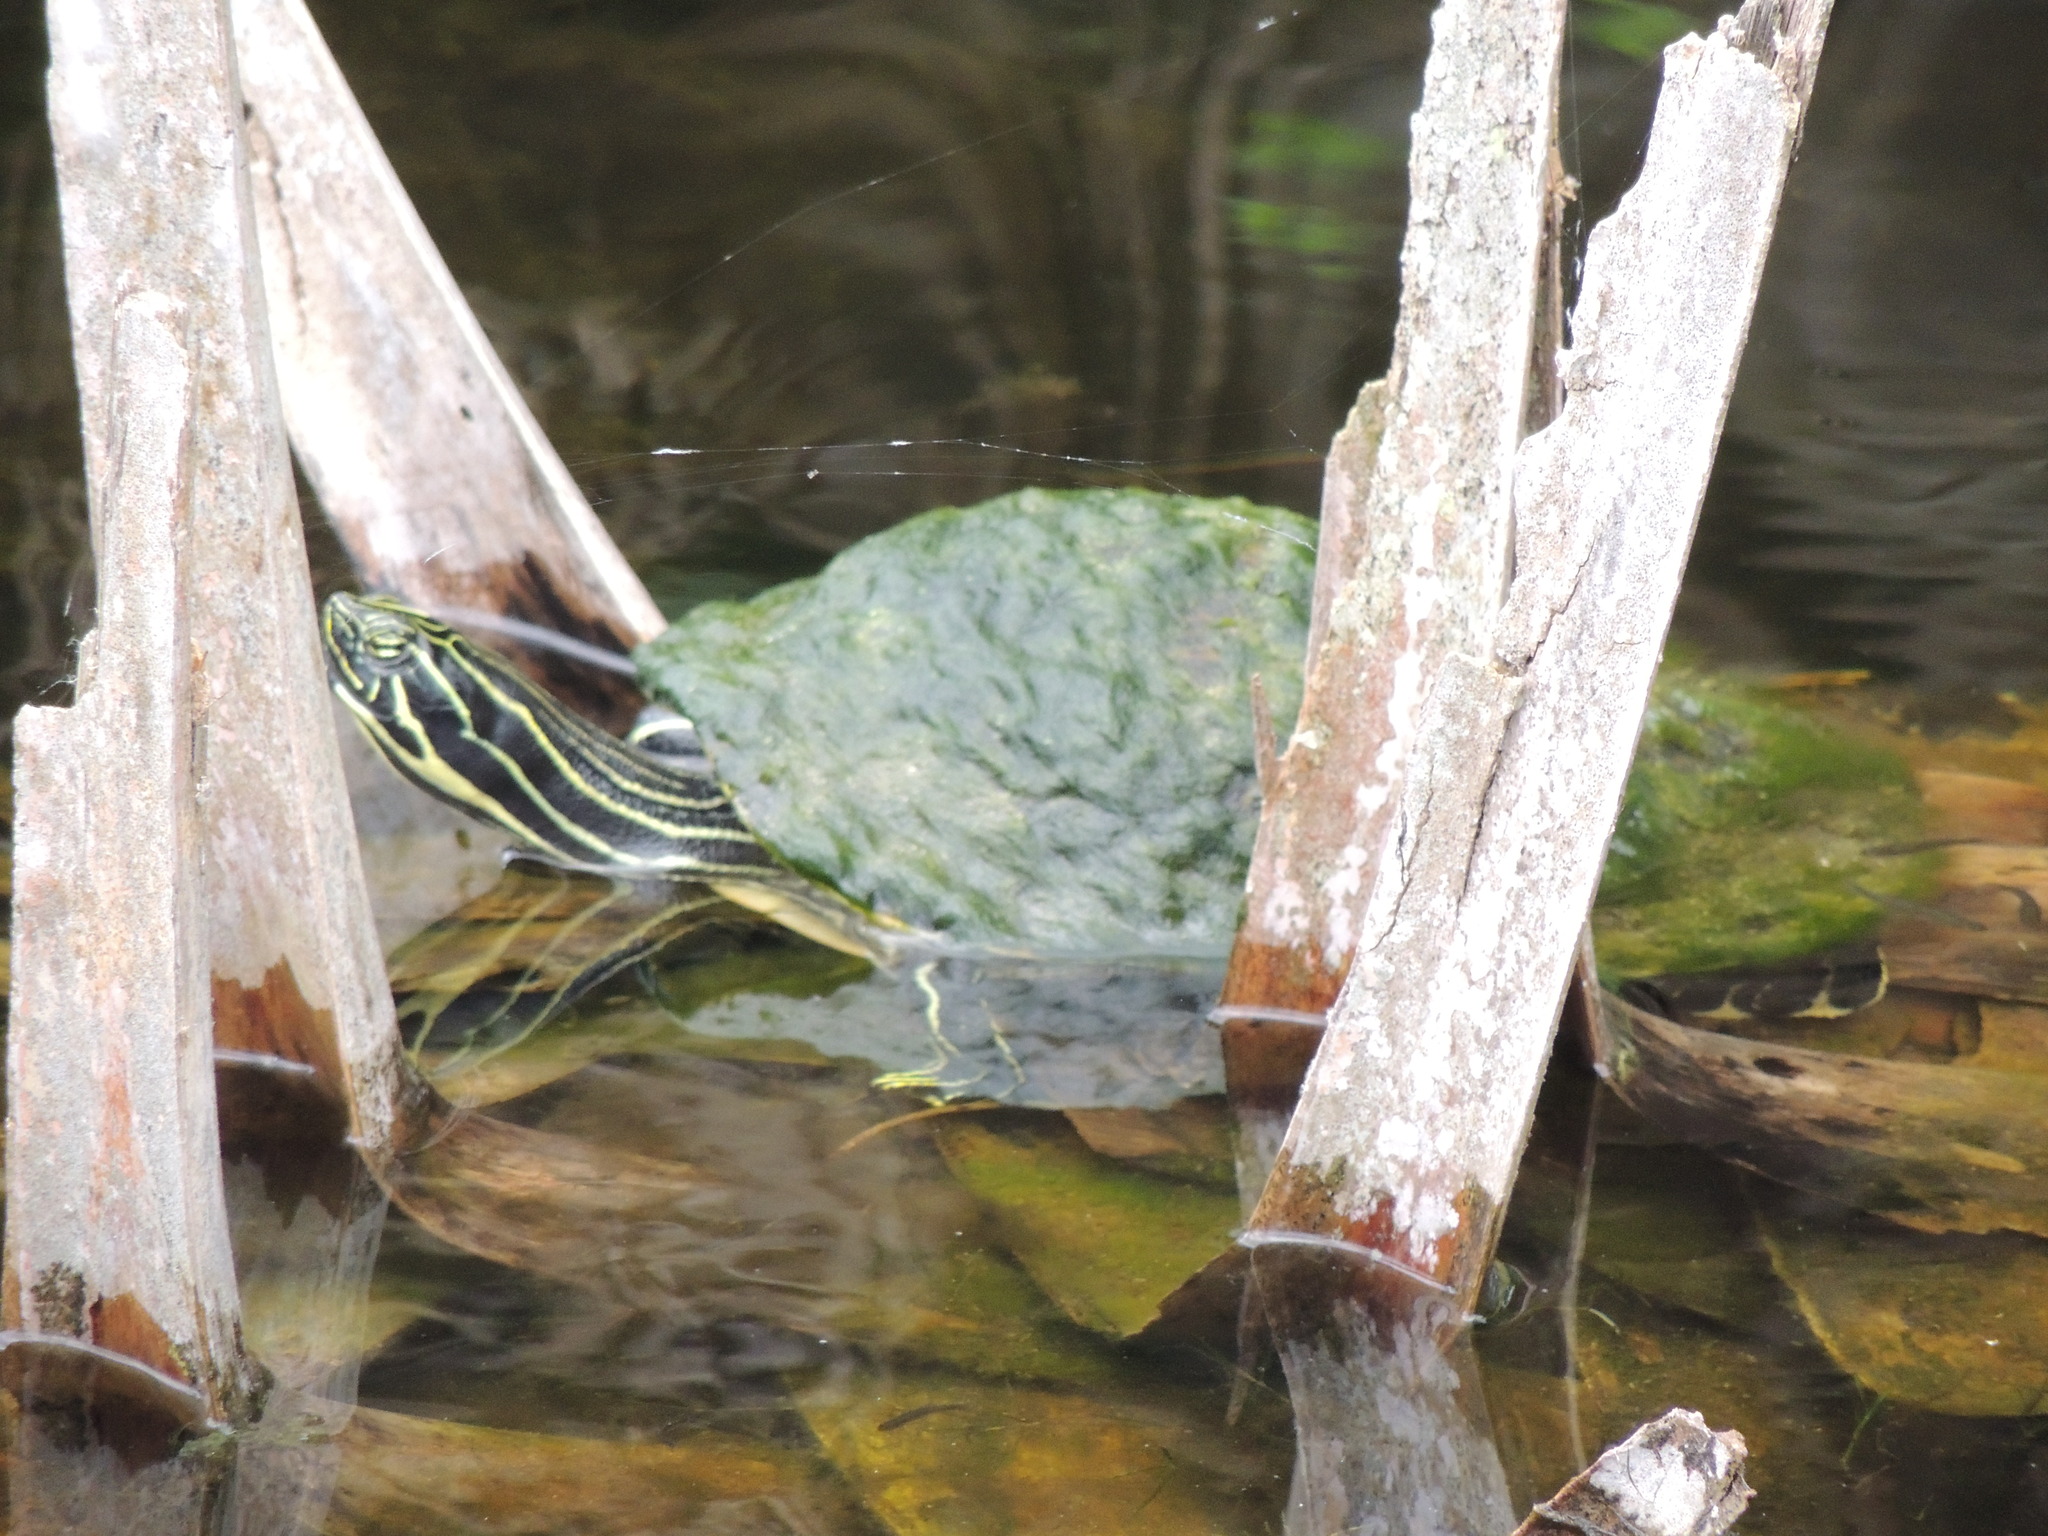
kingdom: Animalia
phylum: Chordata
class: Testudines
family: Emydidae
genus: Pseudemys
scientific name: Pseudemys peninsularis
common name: Peninsula cooter
